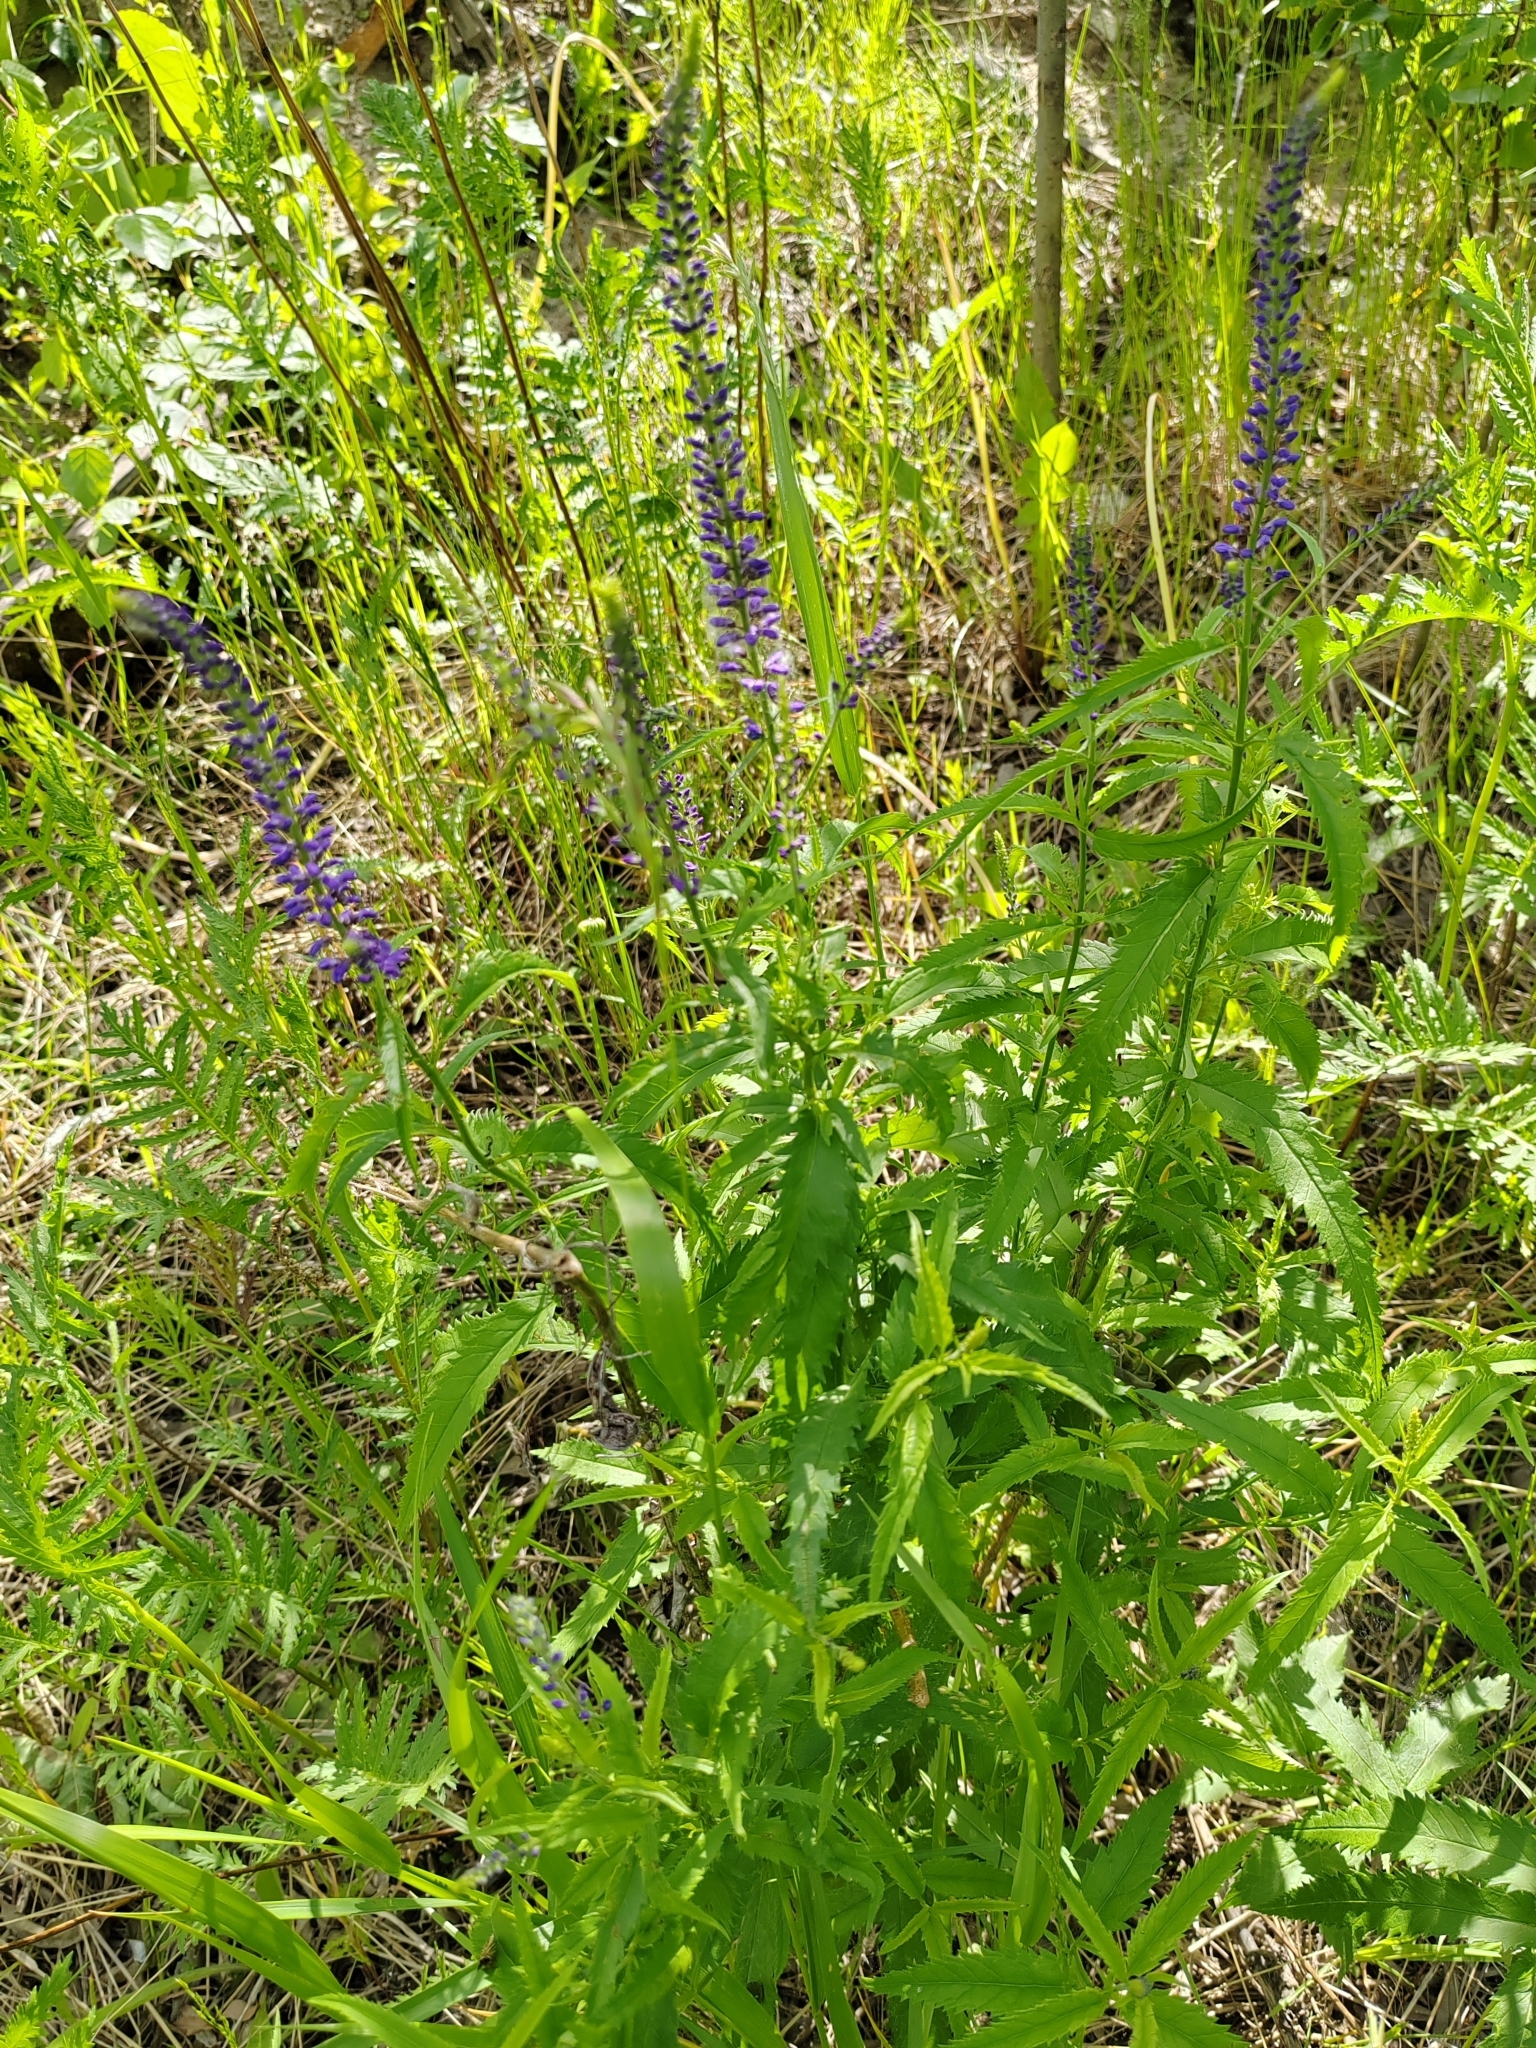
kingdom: Plantae
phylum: Tracheophyta
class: Magnoliopsida
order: Lamiales
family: Plantaginaceae
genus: Veronica
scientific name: Veronica longifolia
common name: Garden speedwell
